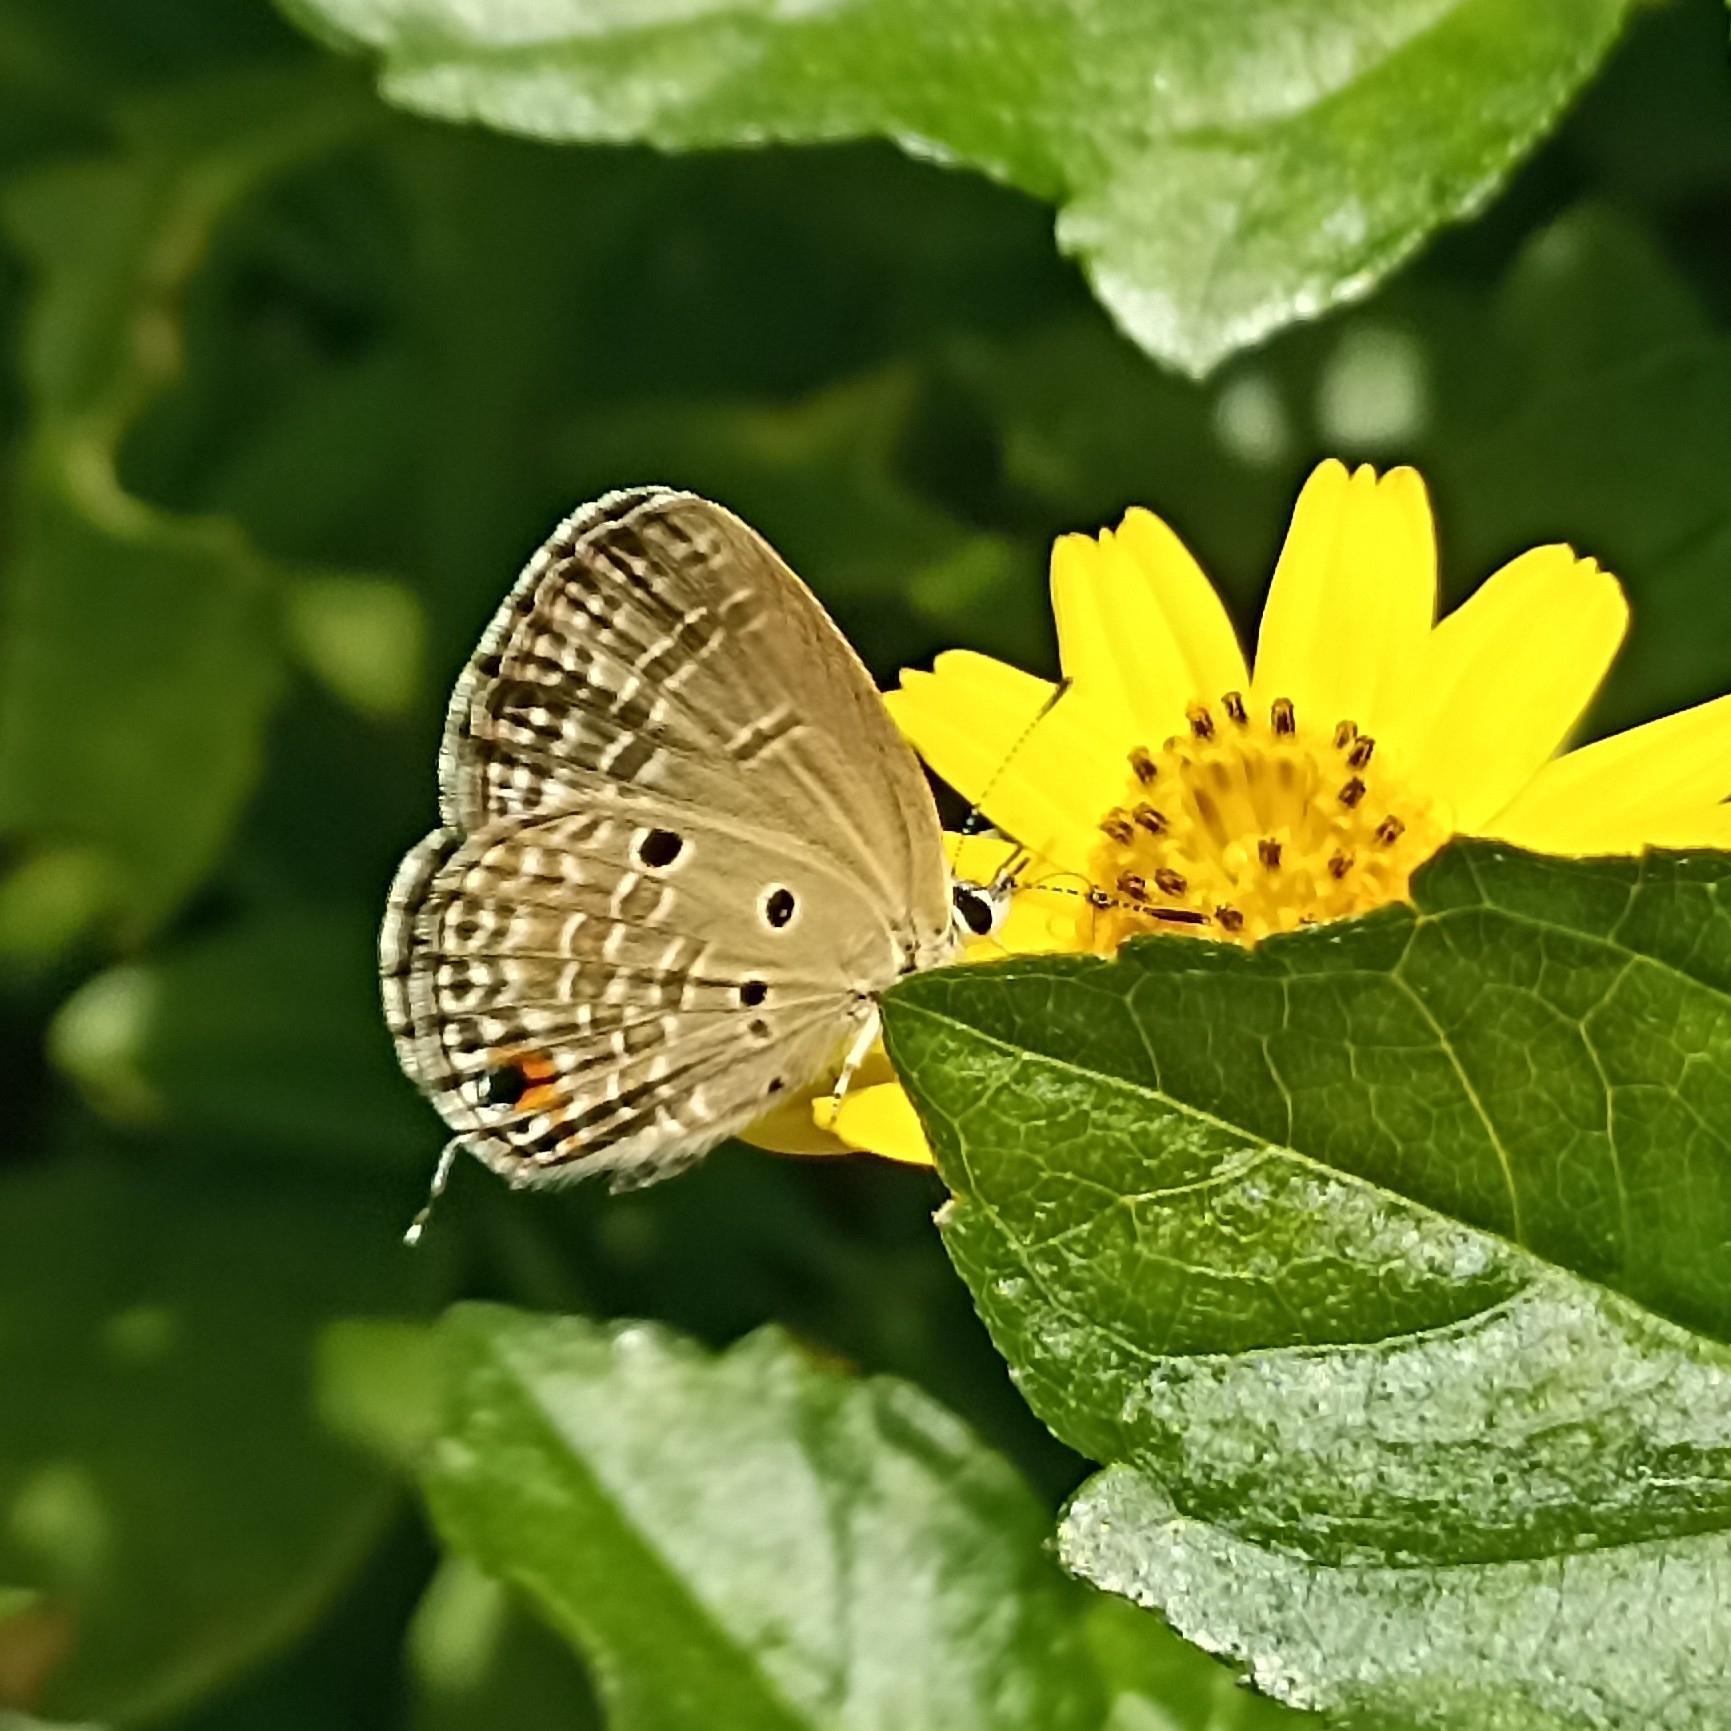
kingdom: Animalia
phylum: Arthropoda
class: Insecta
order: Lepidoptera
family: Lycaenidae
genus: Luthrodes
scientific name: Luthrodes pandava
